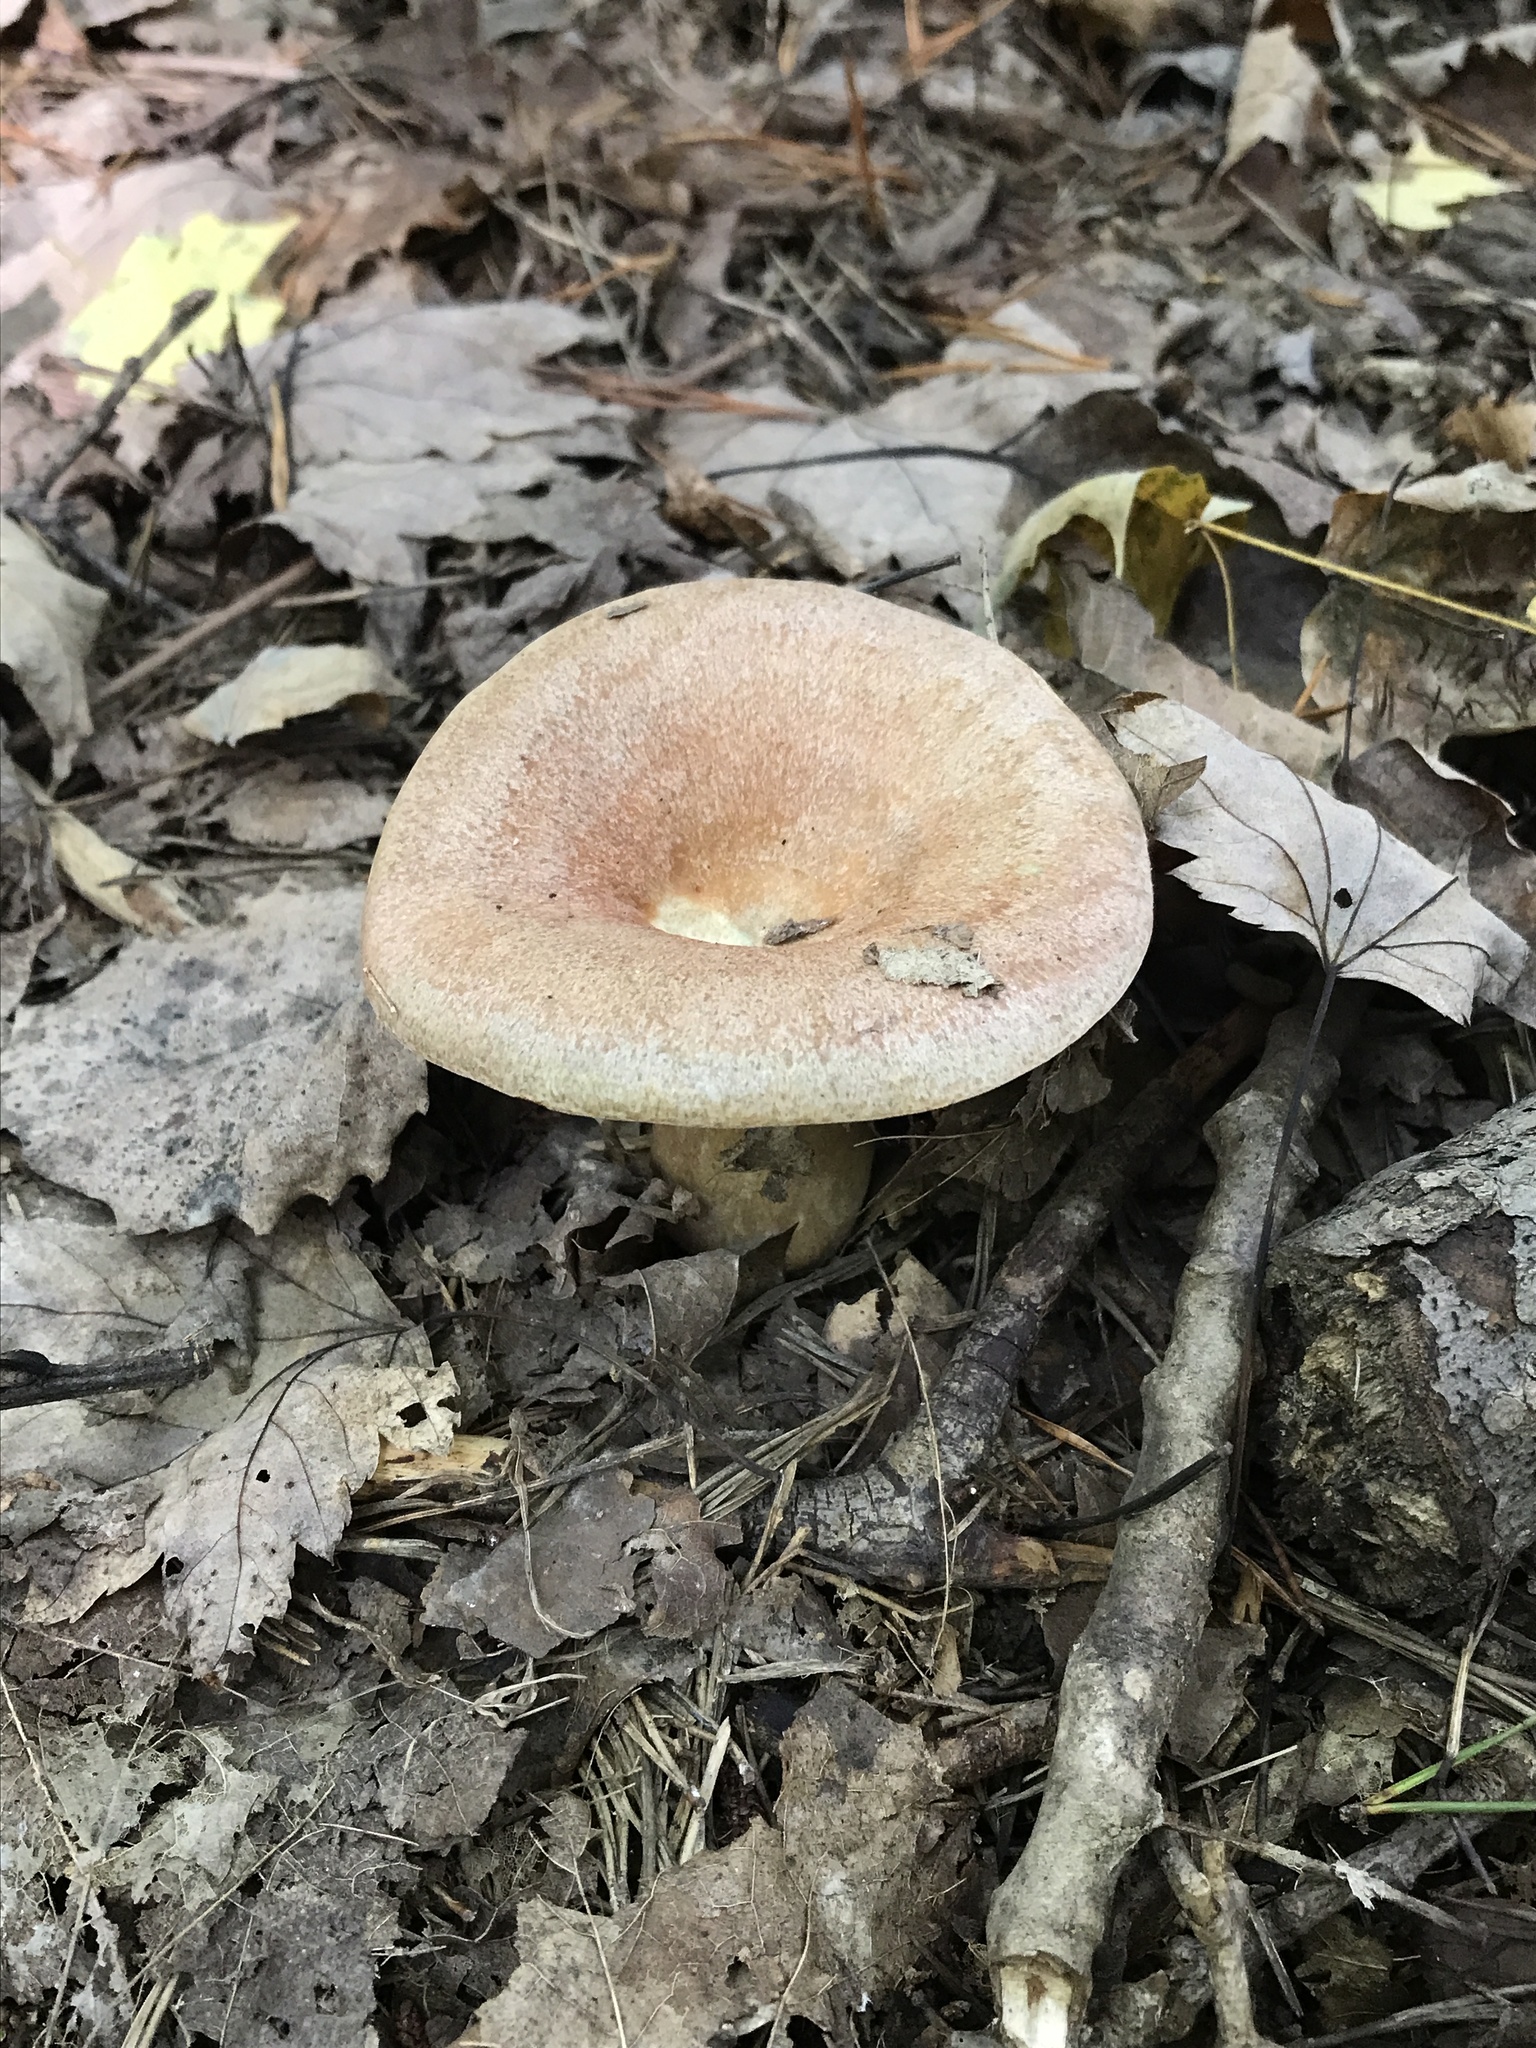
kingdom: Fungi
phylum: Basidiomycota
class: Agaricomycetes
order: Russulales
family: Russulaceae
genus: Lactarius
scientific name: Lactarius deliciosus
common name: Saffron milk-cap
